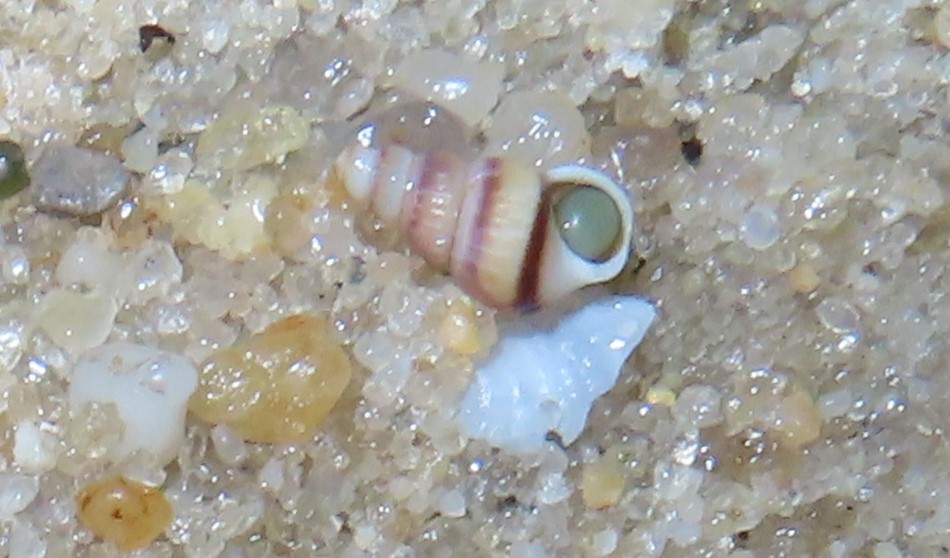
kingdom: Animalia
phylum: Mollusca
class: Gastropoda
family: Epitoniidae
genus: Gyroscala
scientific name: Gyroscala rupicola
